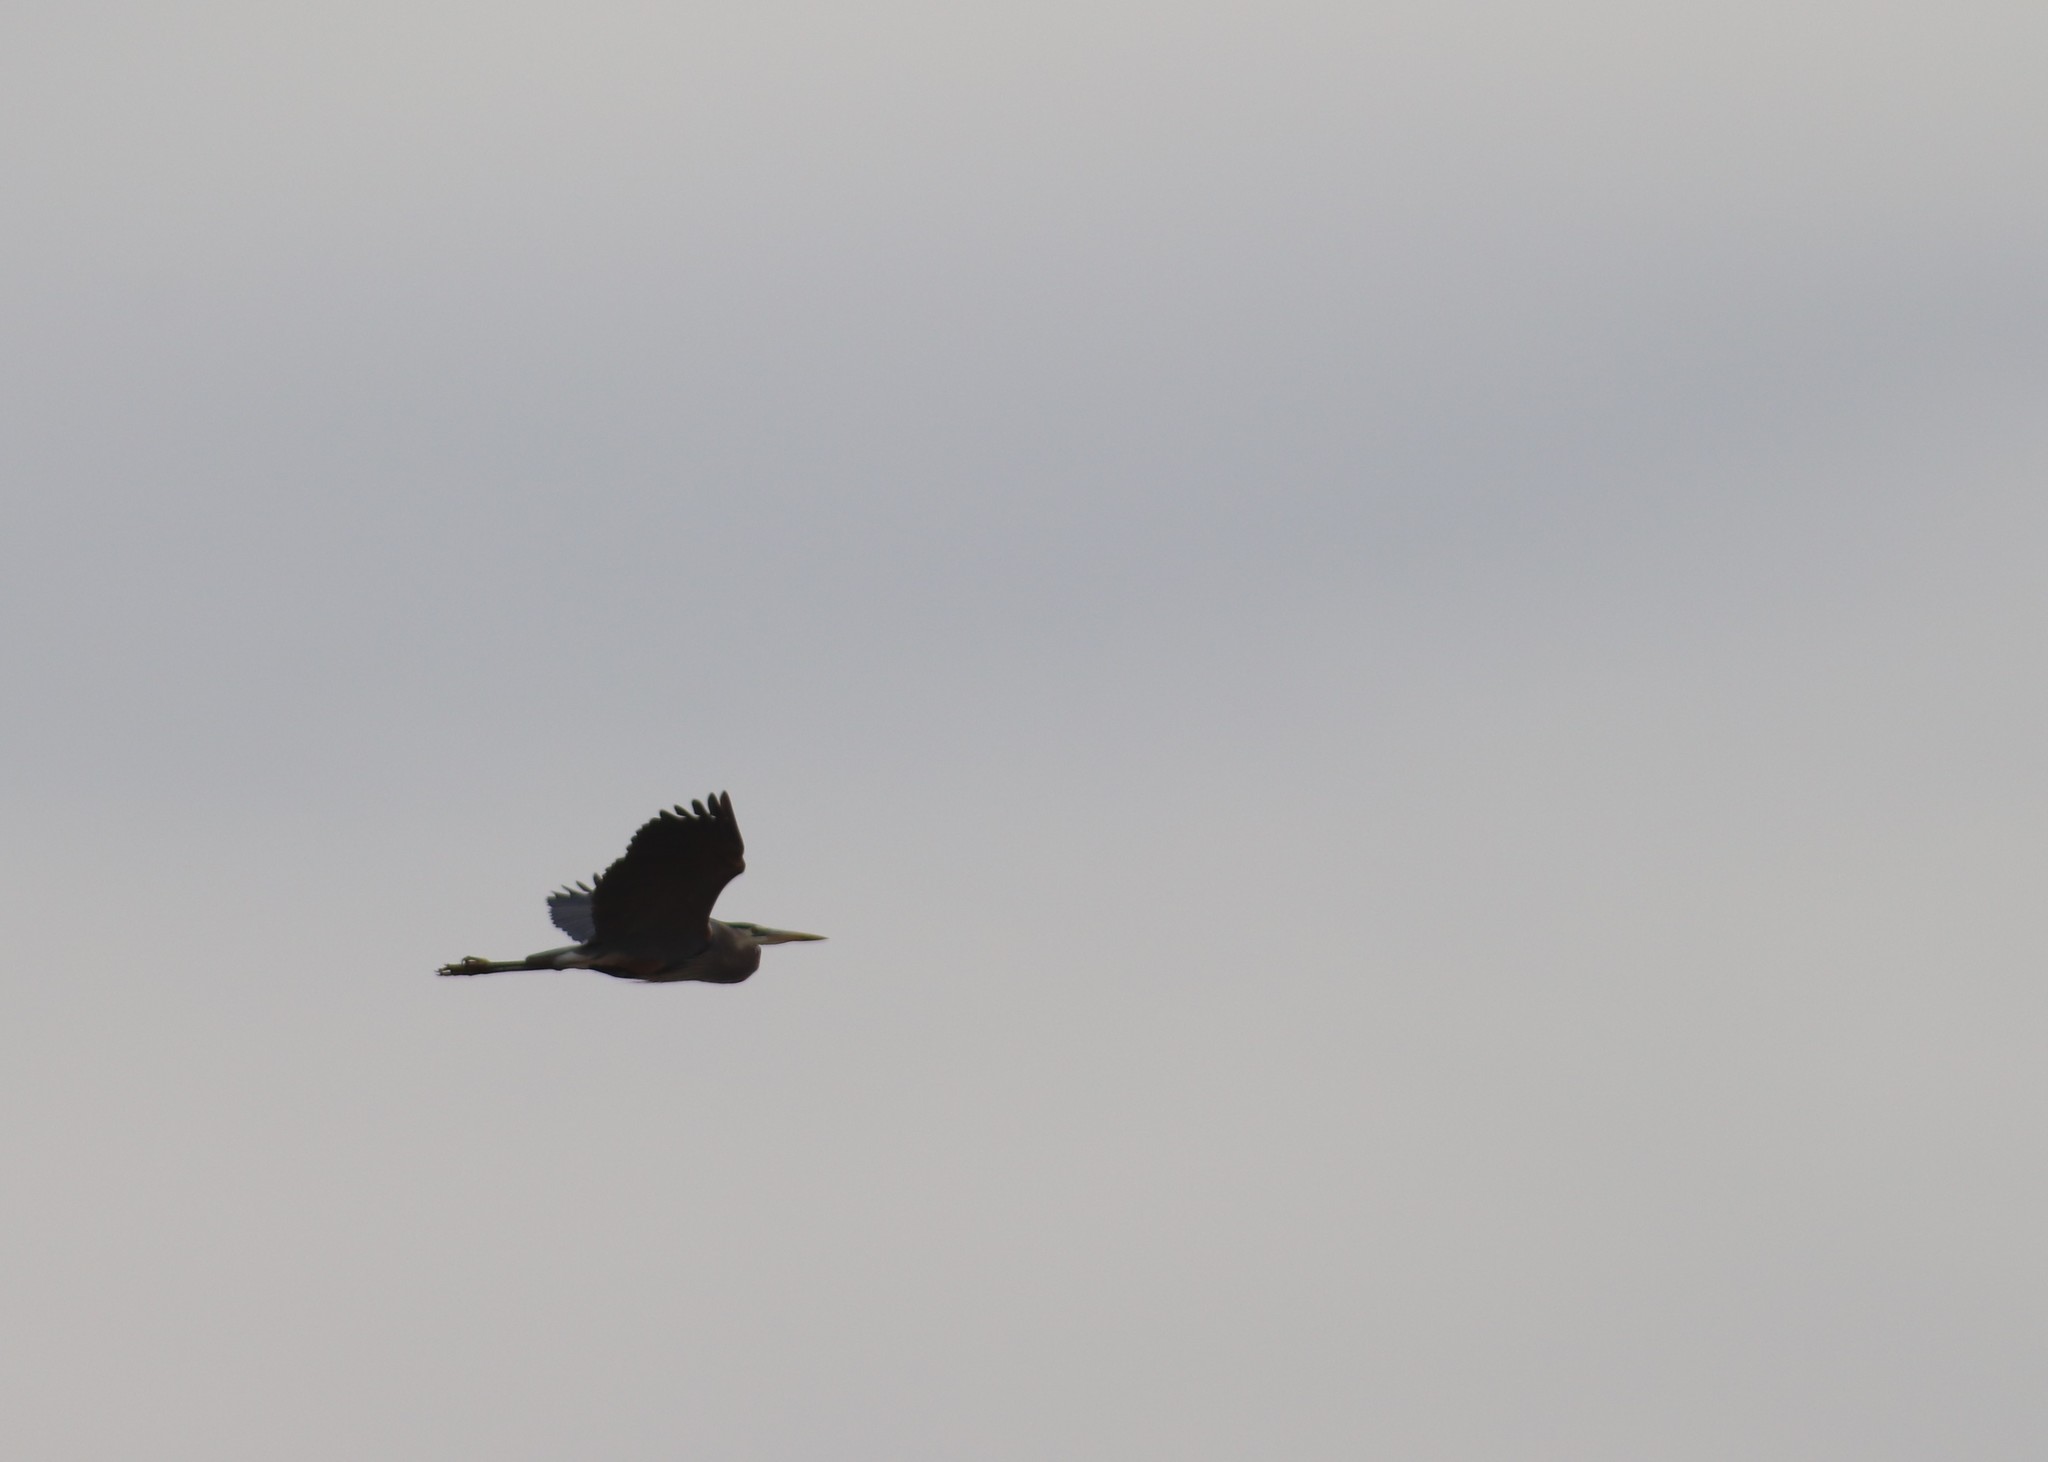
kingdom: Animalia
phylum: Chordata
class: Aves
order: Pelecaniformes
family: Ardeidae
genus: Ardea
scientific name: Ardea herodias
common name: Great blue heron
